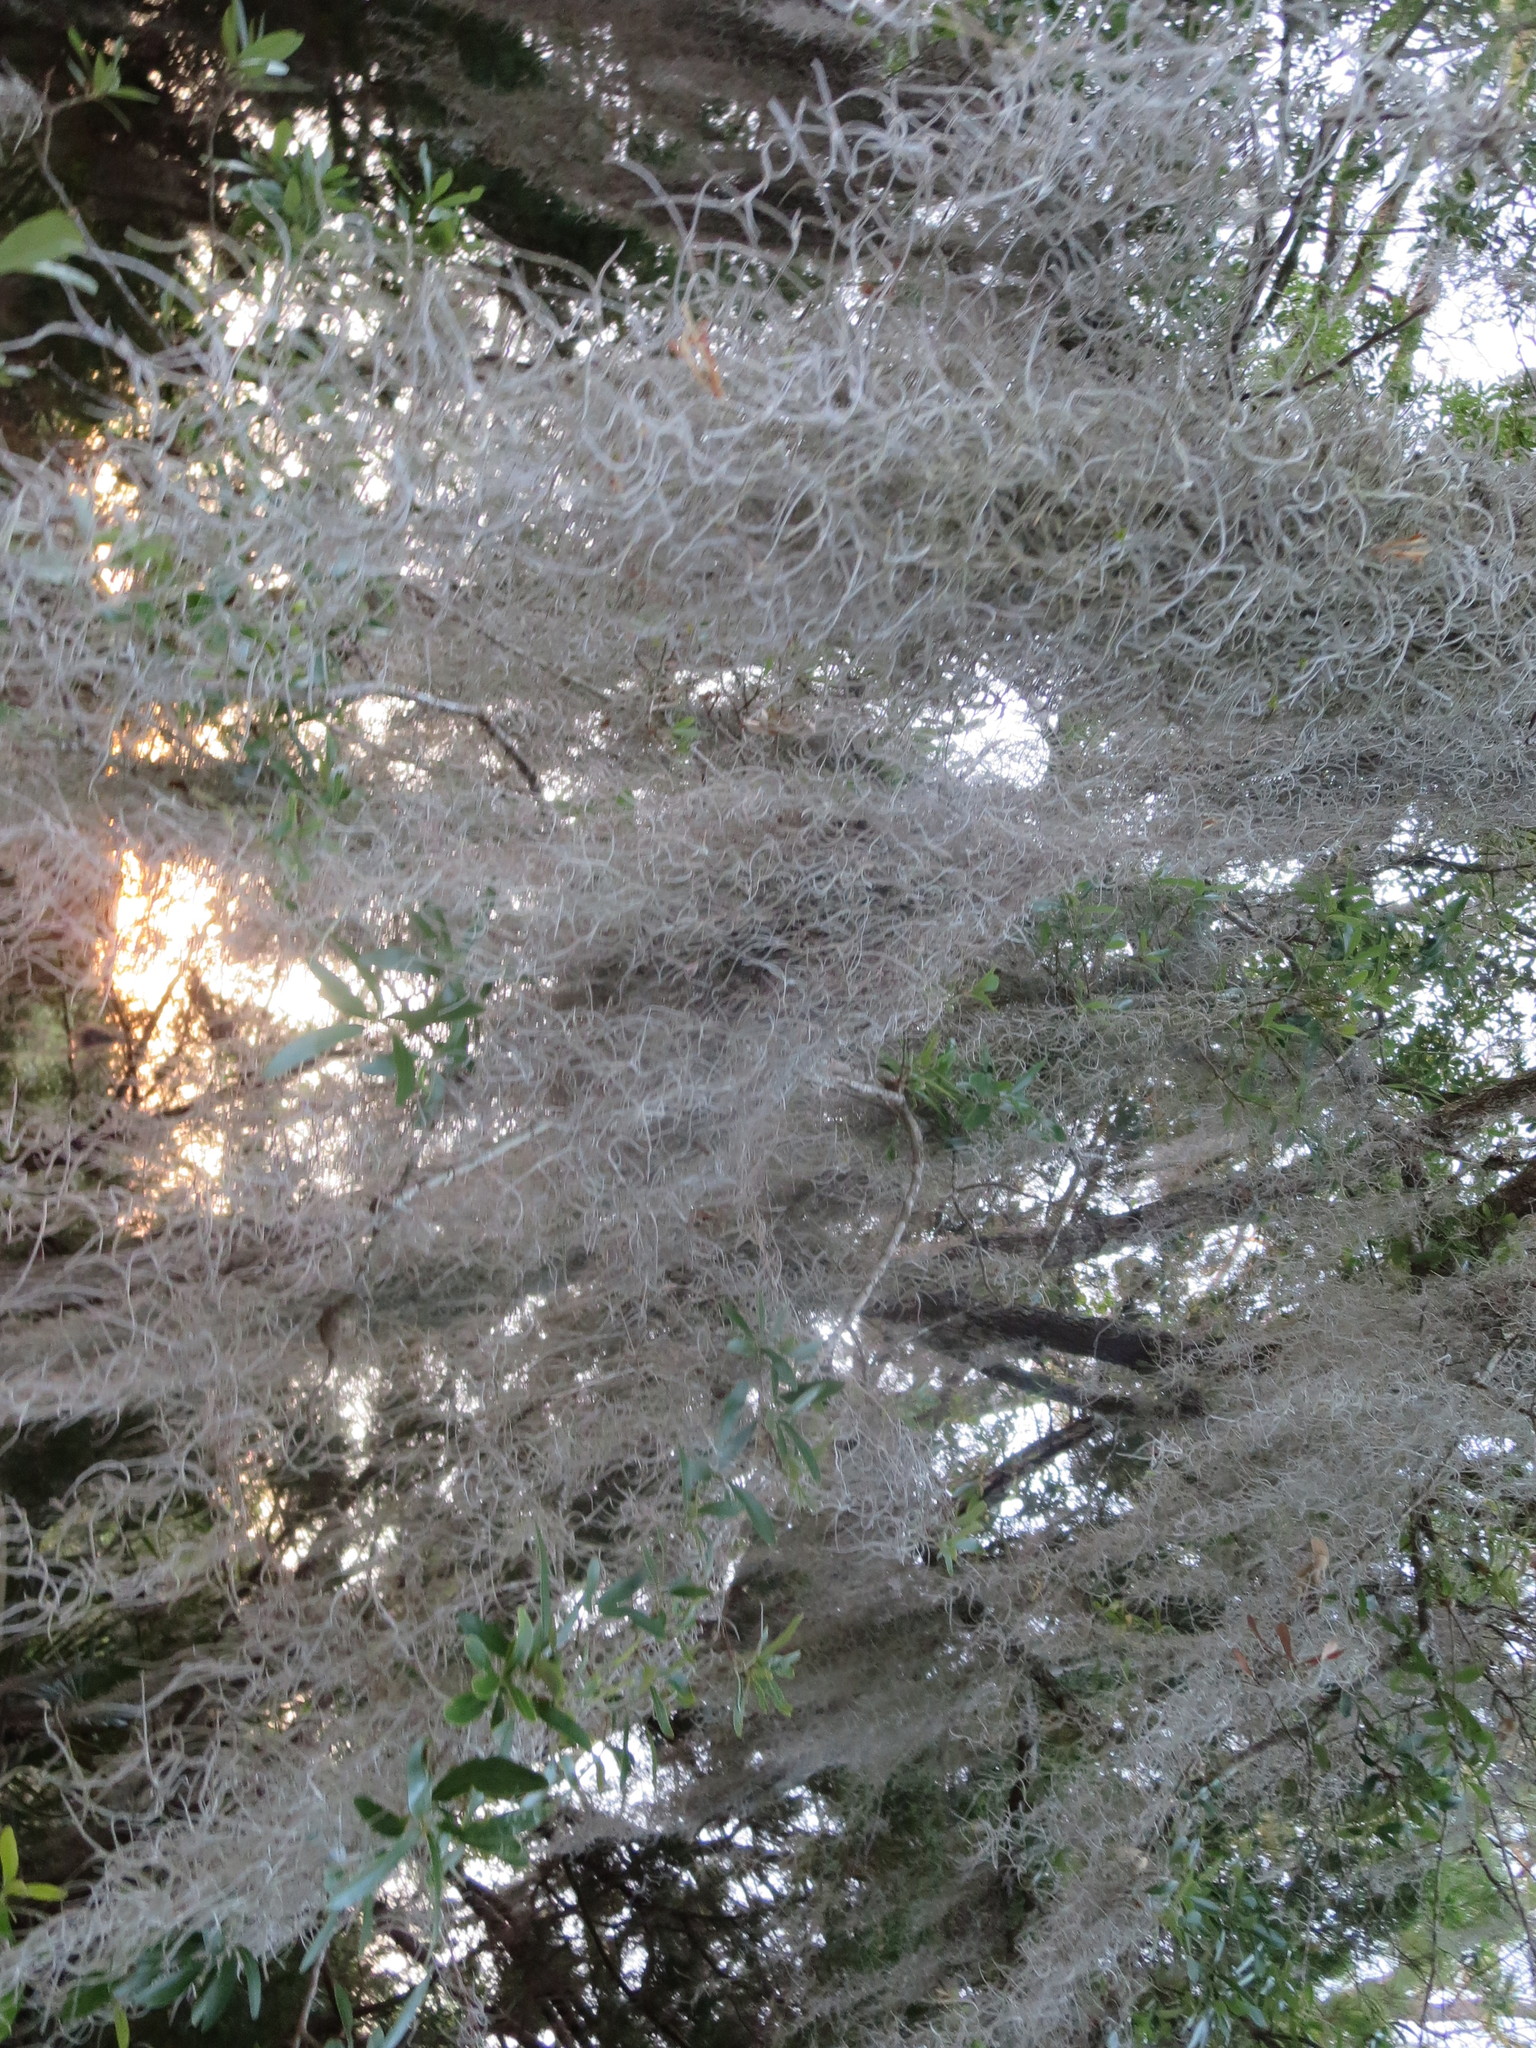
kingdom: Plantae
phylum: Tracheophyta
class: Liliopsida
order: Poales
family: Bromeliaceae
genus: Tillandsia
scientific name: Tillandsia usneoides
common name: Spanish moss
